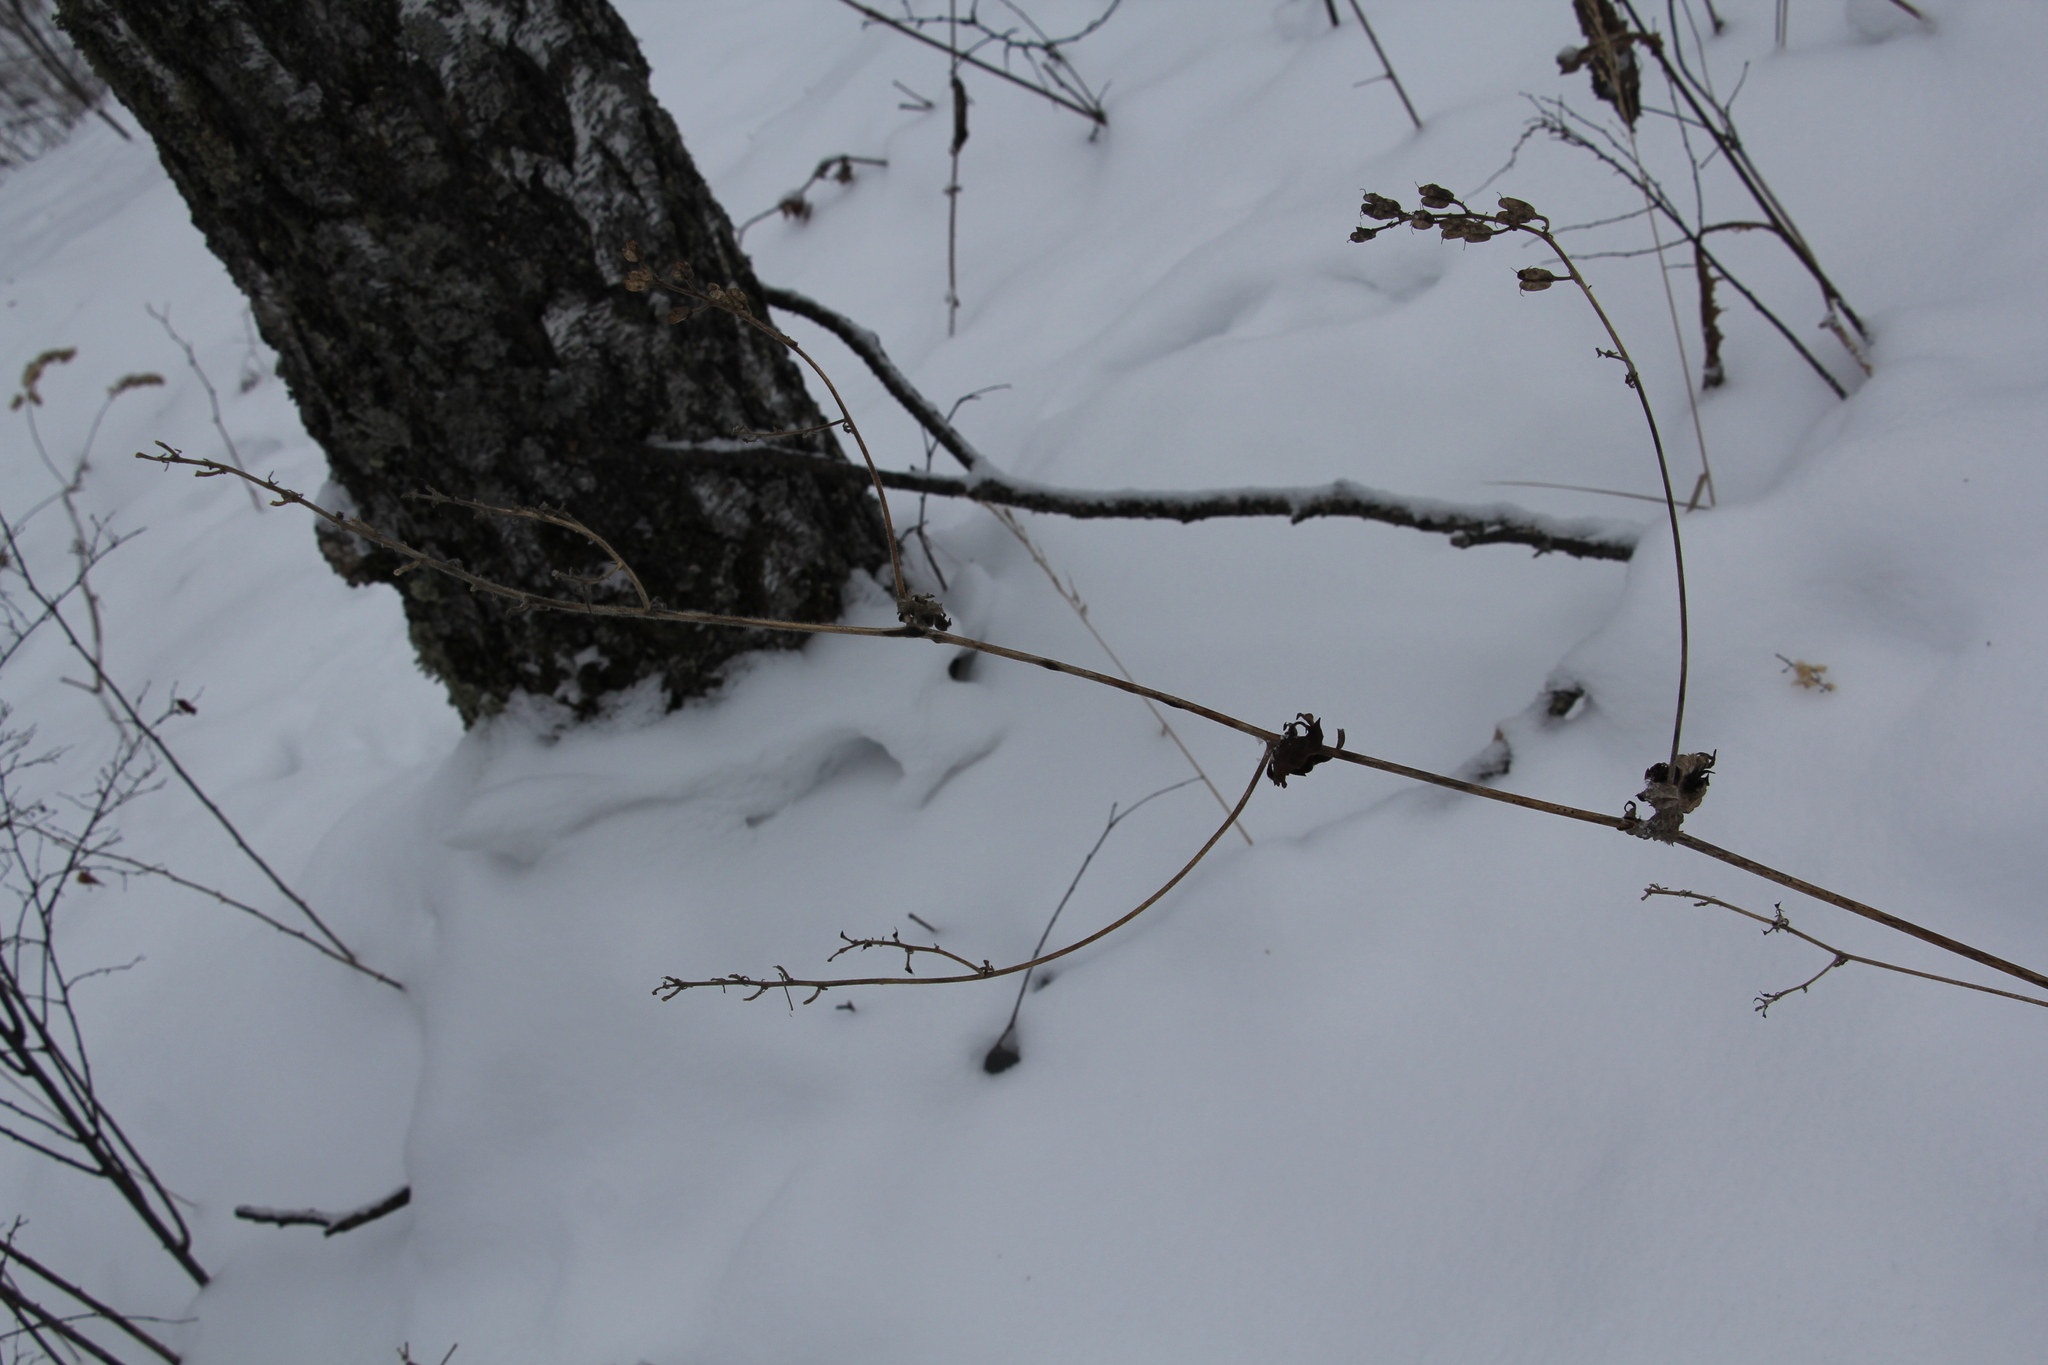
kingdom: Plantae
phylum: Tracheophyta
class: Magnoliopsida
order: Ranunculales
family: Ranunculaceae
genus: Aconitum
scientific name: Aconitum septentrionale
